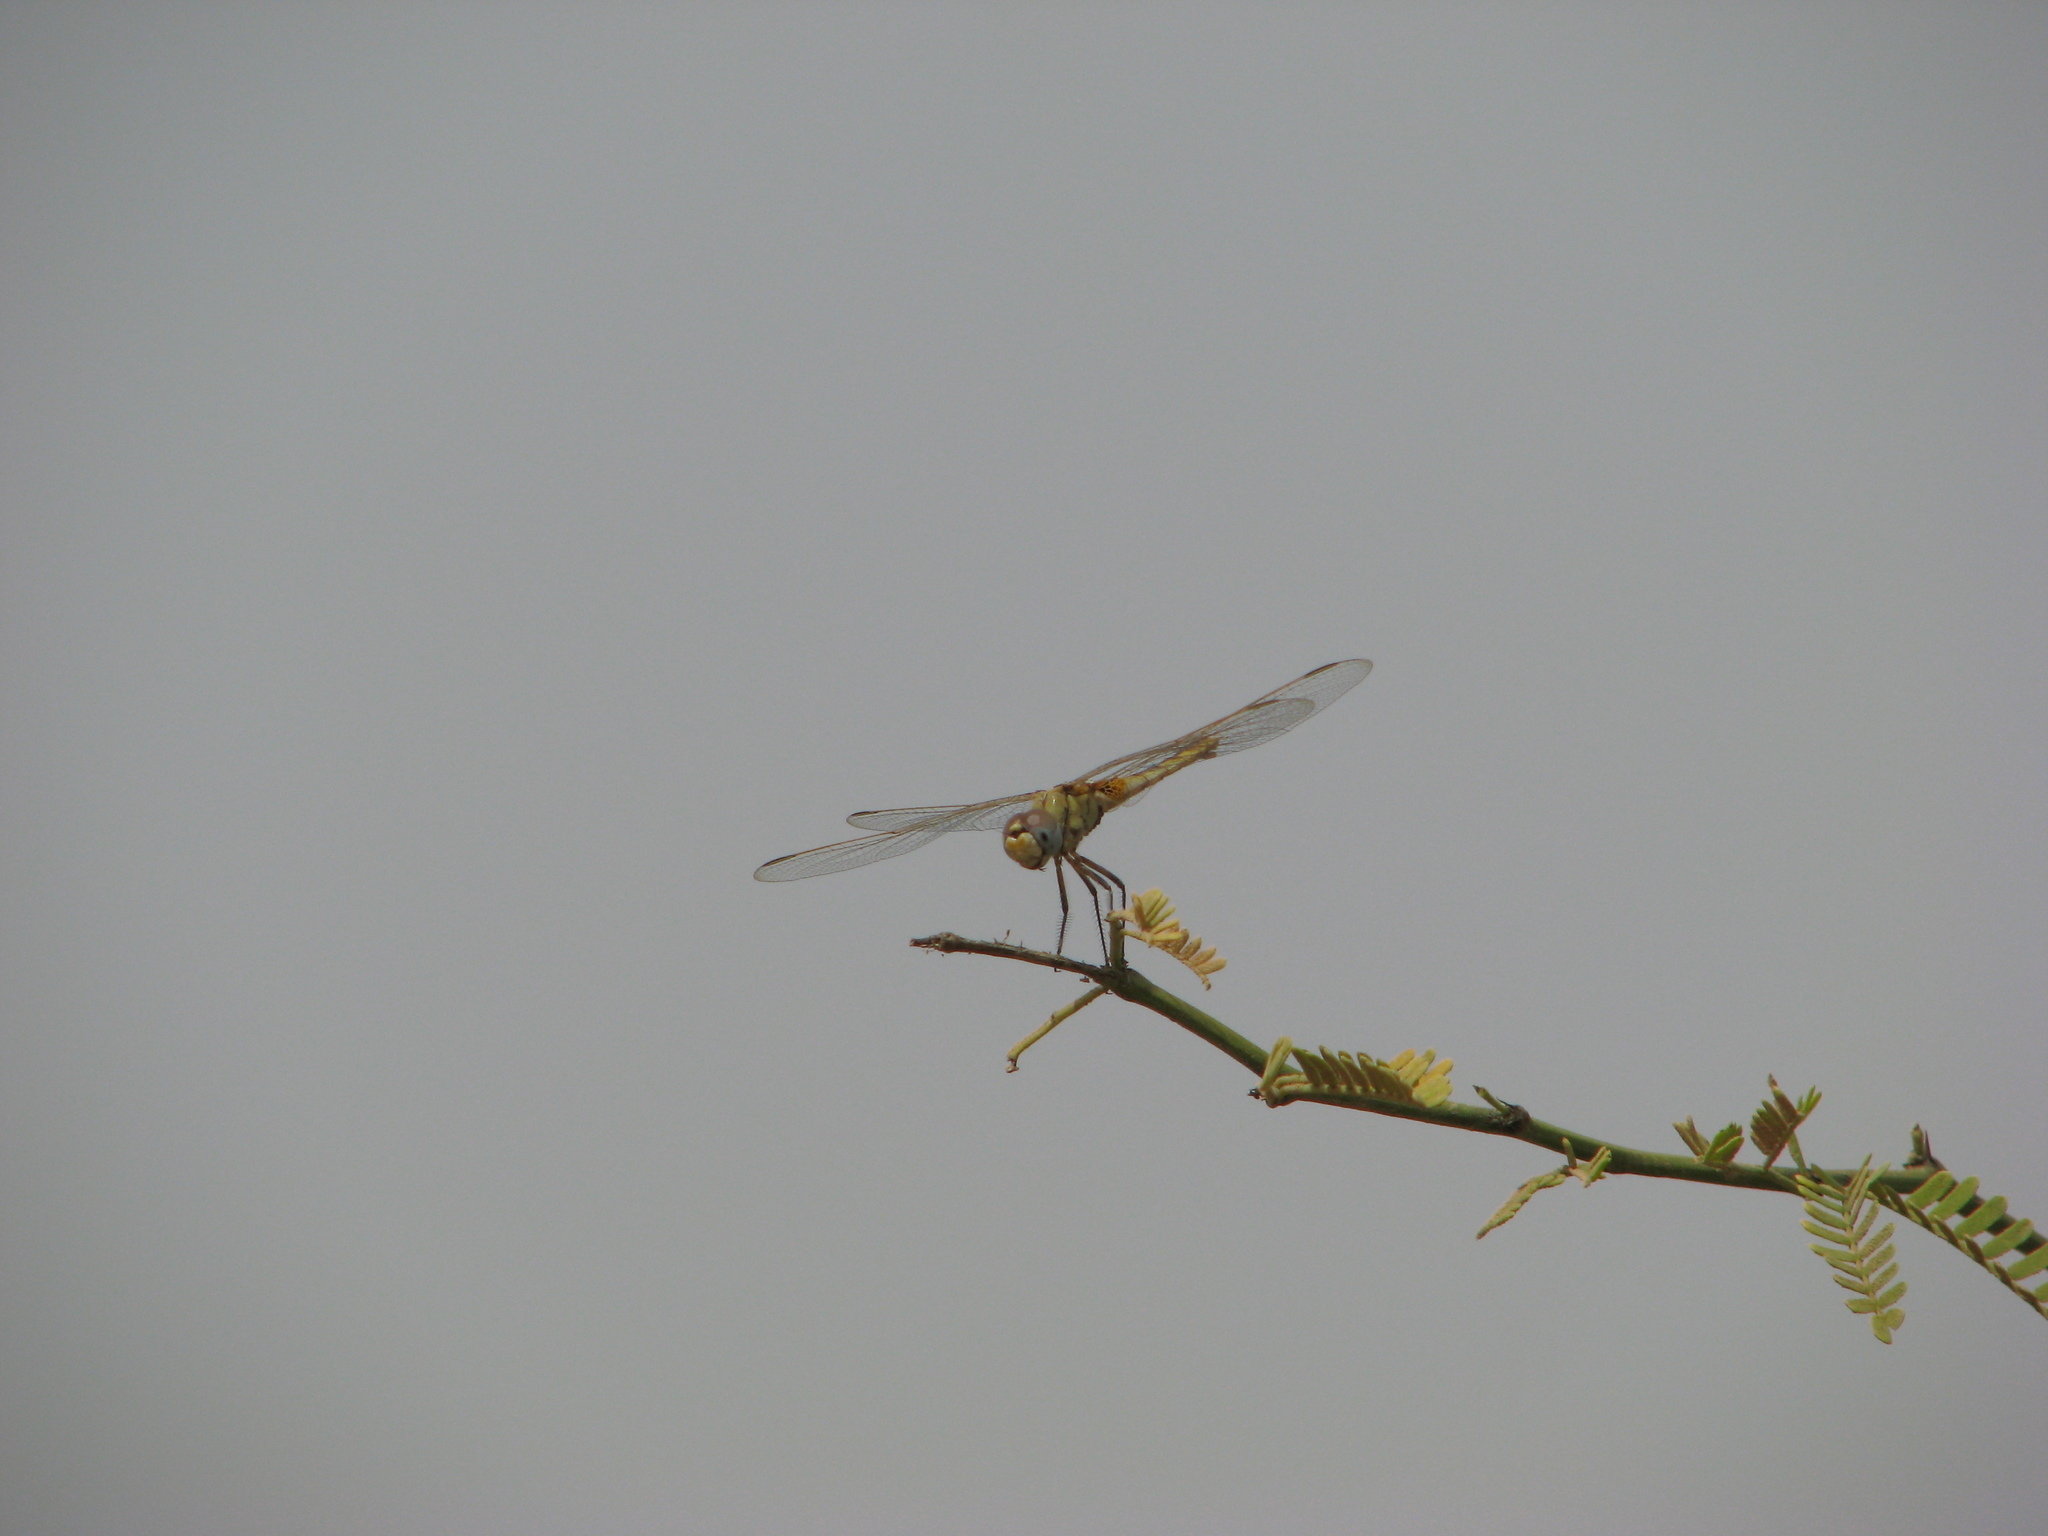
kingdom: Animalia
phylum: Arthropoda
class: Insecta
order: Odonata
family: Libellulidae
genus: Urothemis
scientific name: Urothemis edwardsii
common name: Blue basker
